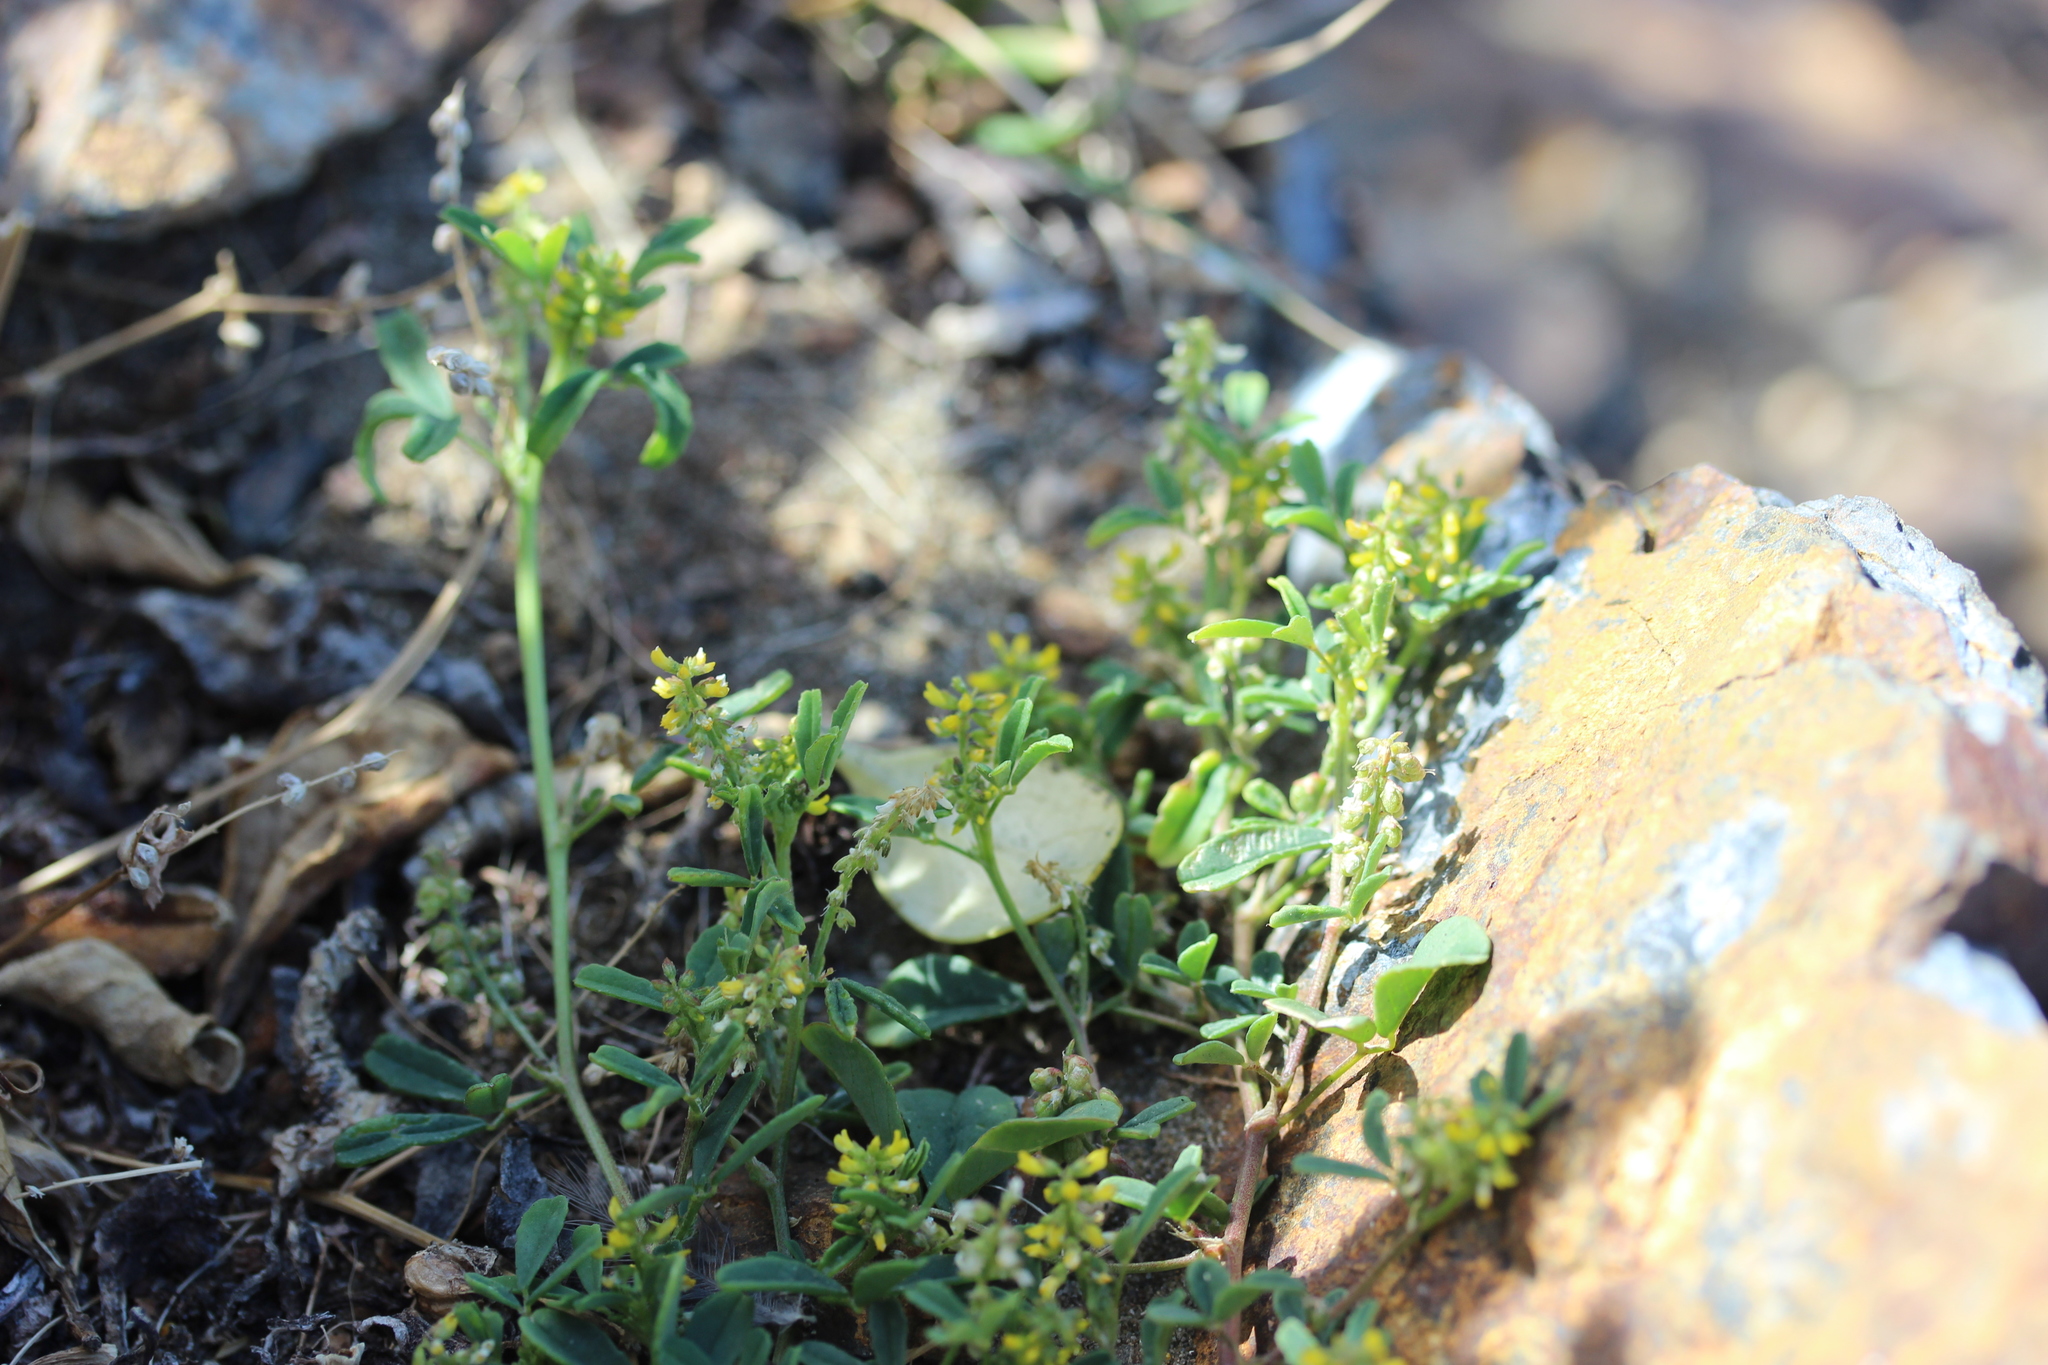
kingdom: Plantae
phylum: Tracheophyta
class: Magnoliopsida
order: Fabales
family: Fabaceae
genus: Trifolium
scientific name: Trifolium dubium
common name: Suckling clover
